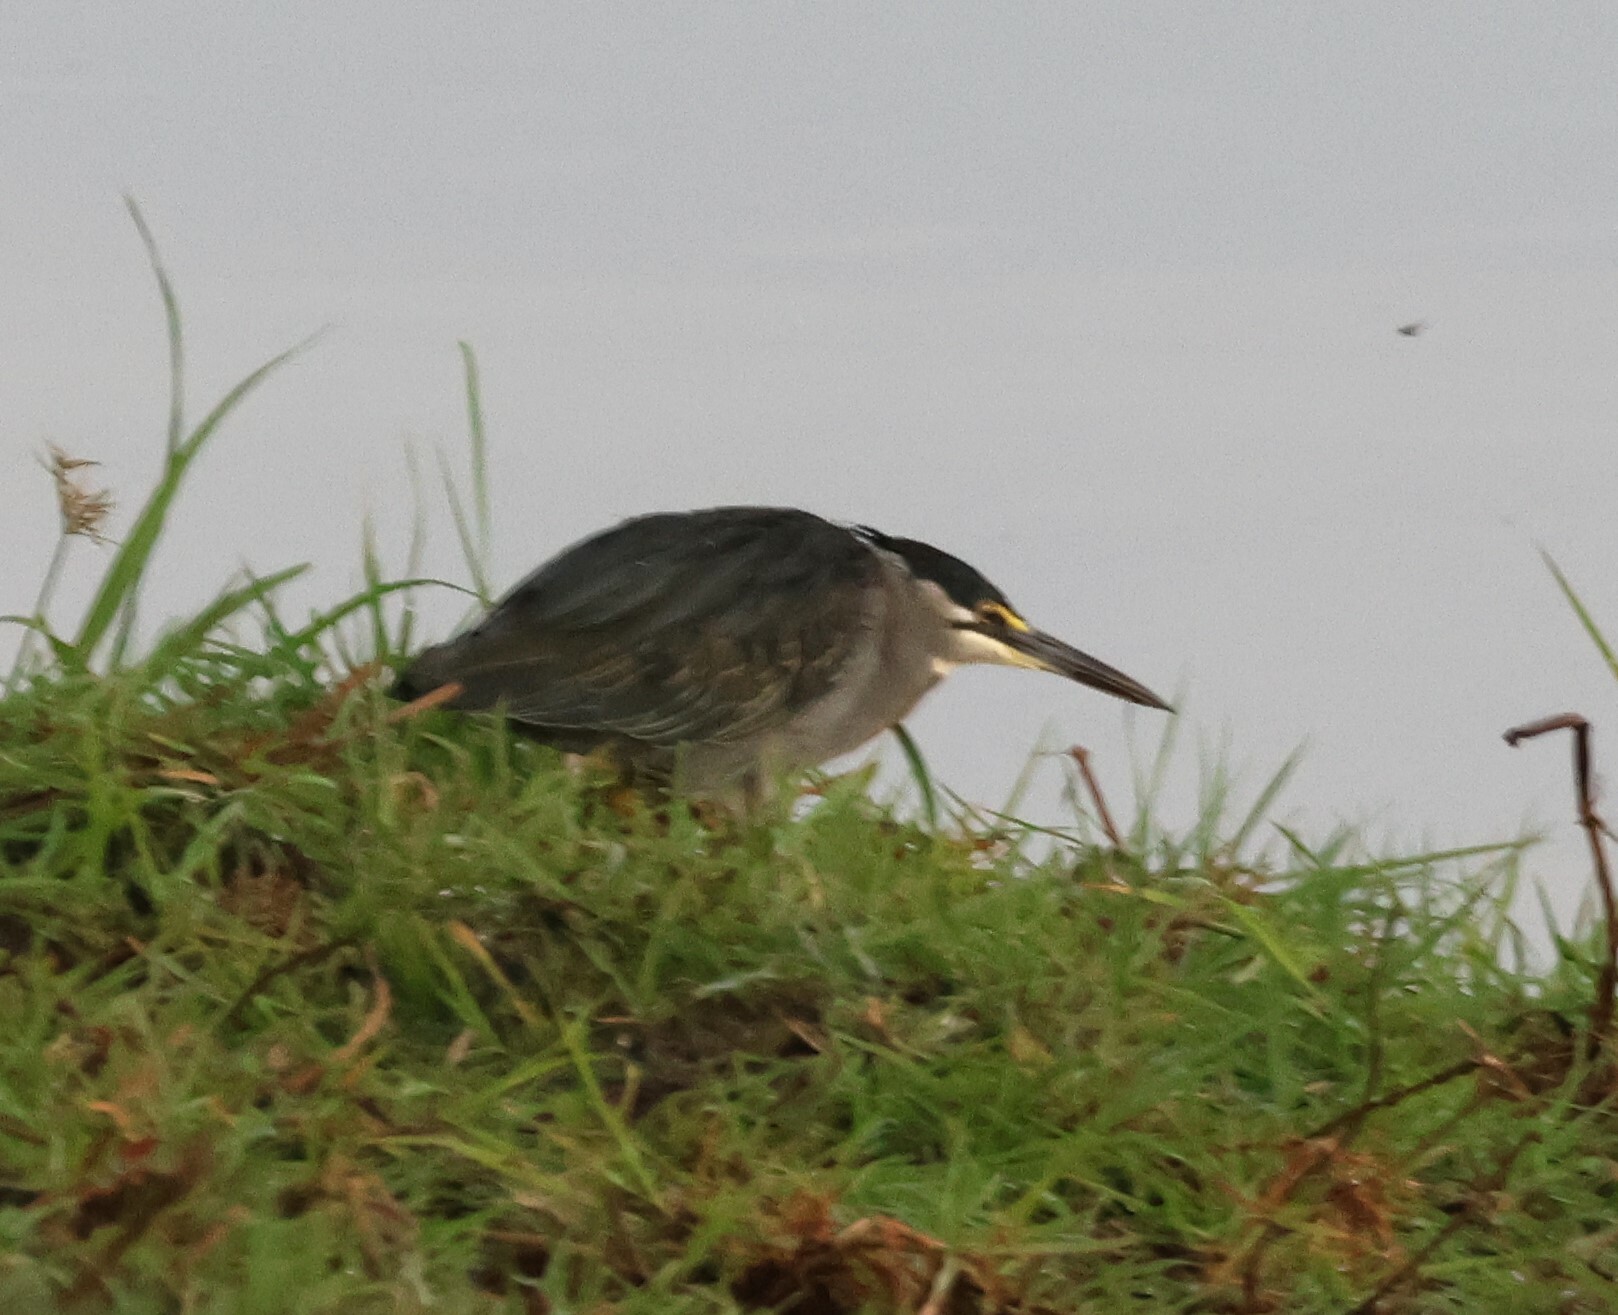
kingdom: Animalia
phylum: Chordata
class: Aves
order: Pelecaniformes
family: Ardeidae
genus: Butorides
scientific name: Butorides striata
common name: Striated heron
